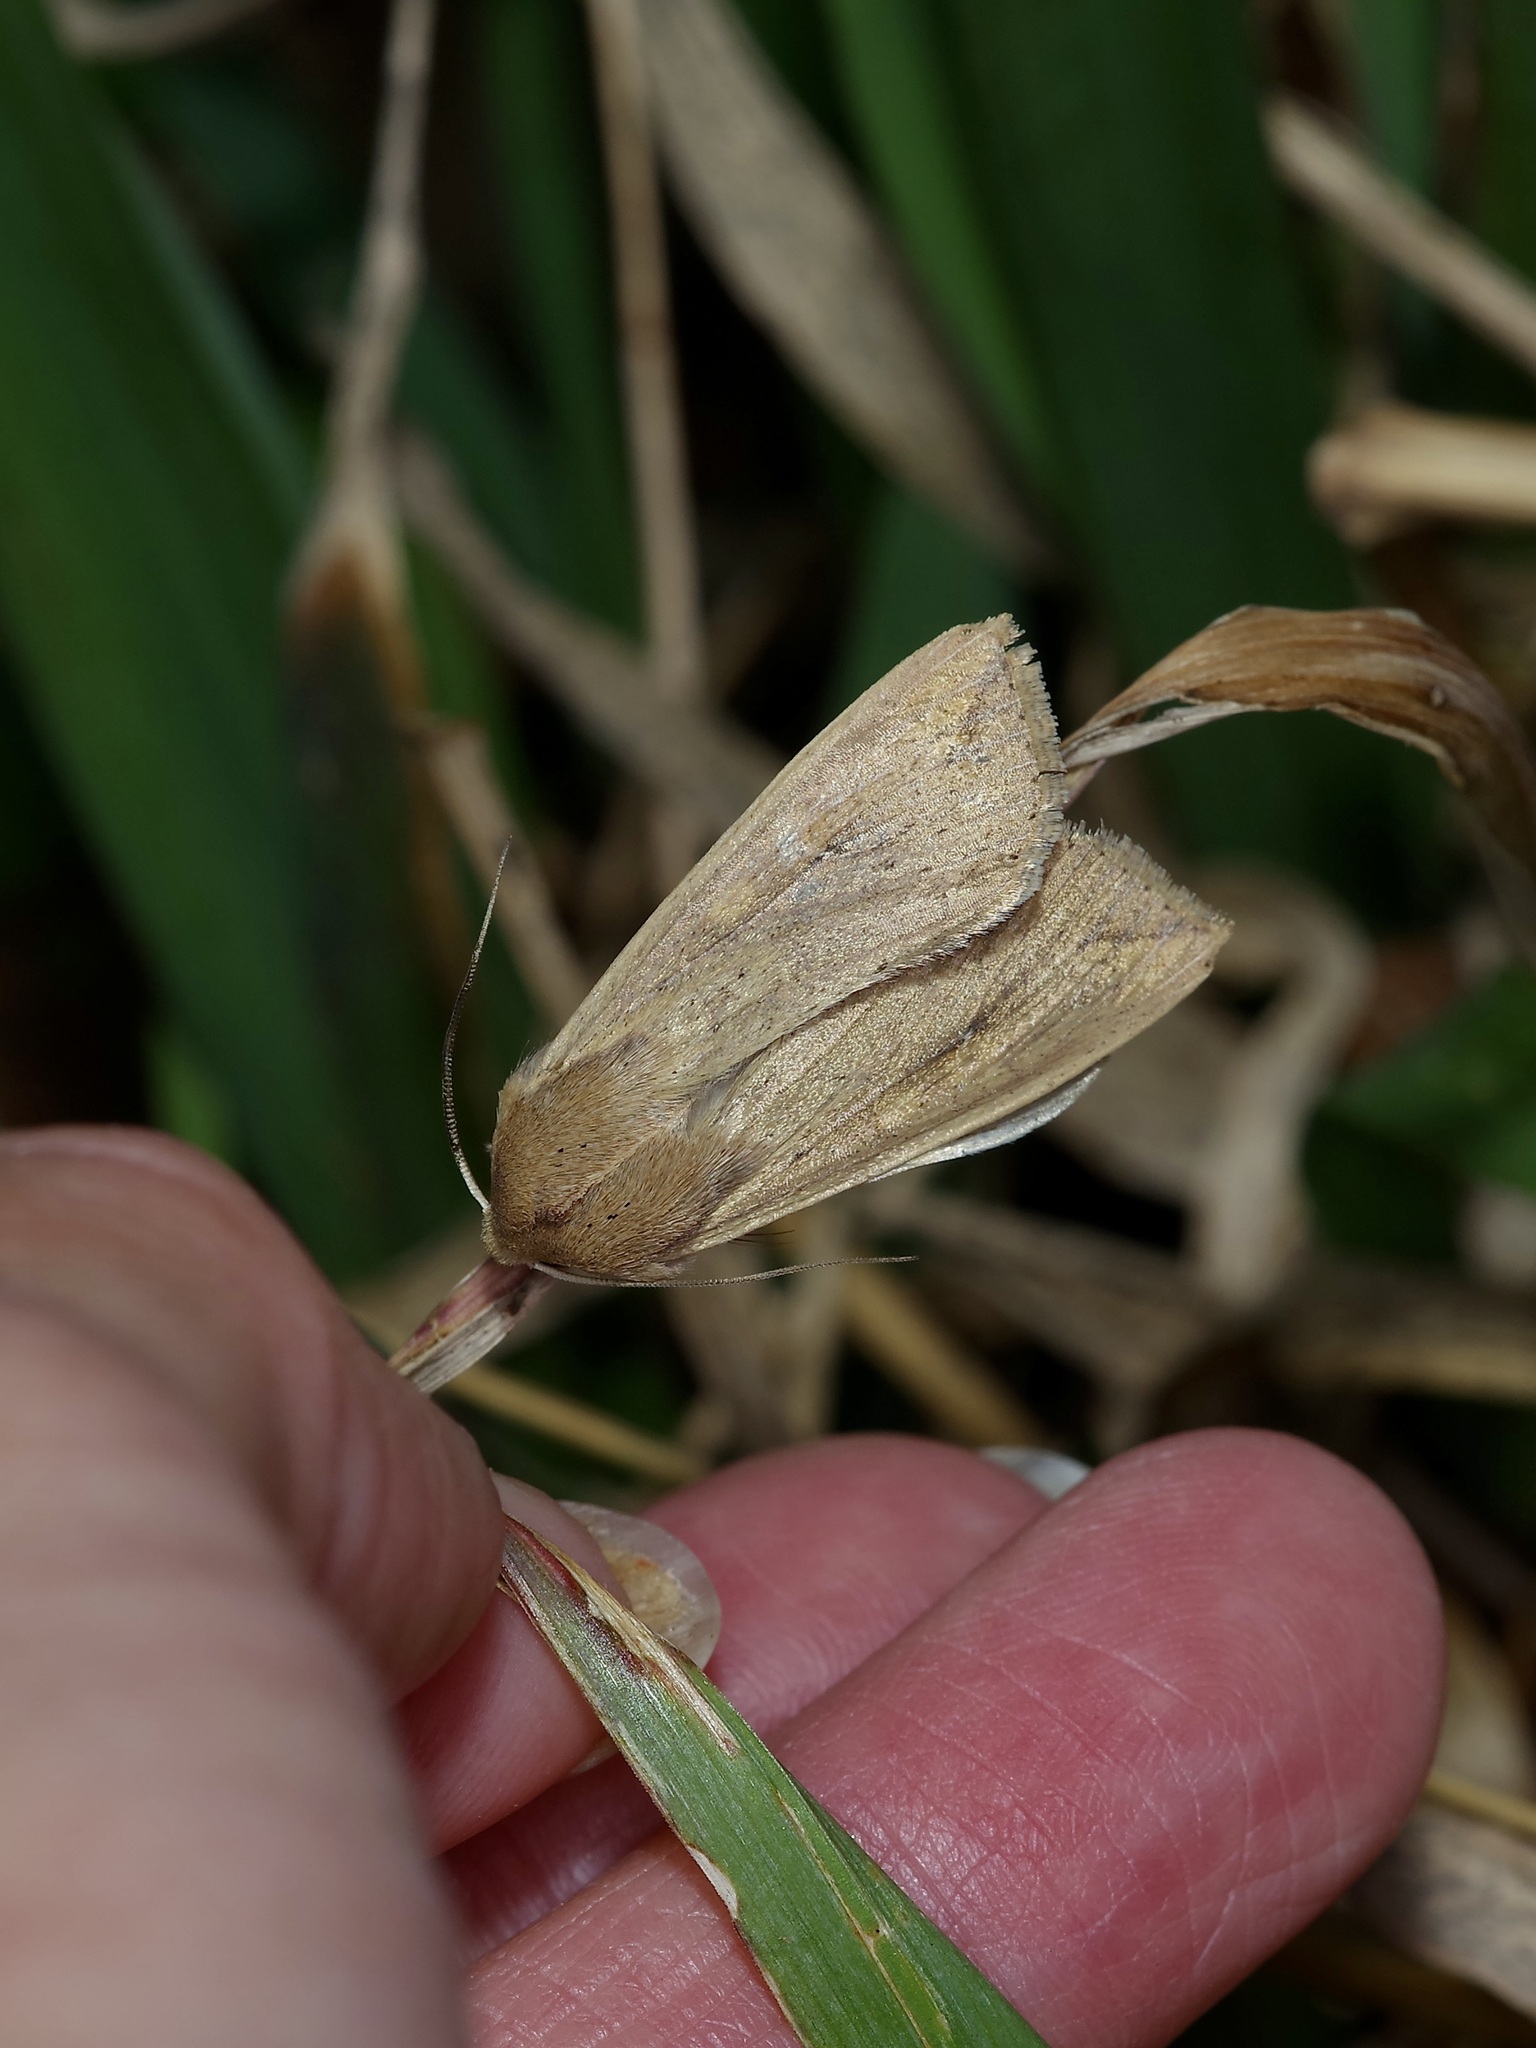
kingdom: Animalia
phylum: Arthropoda
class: Insecta
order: Lepidoptera
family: Noctuidae
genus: Mythimna
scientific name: Mythimna unipuncta
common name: White-speck
